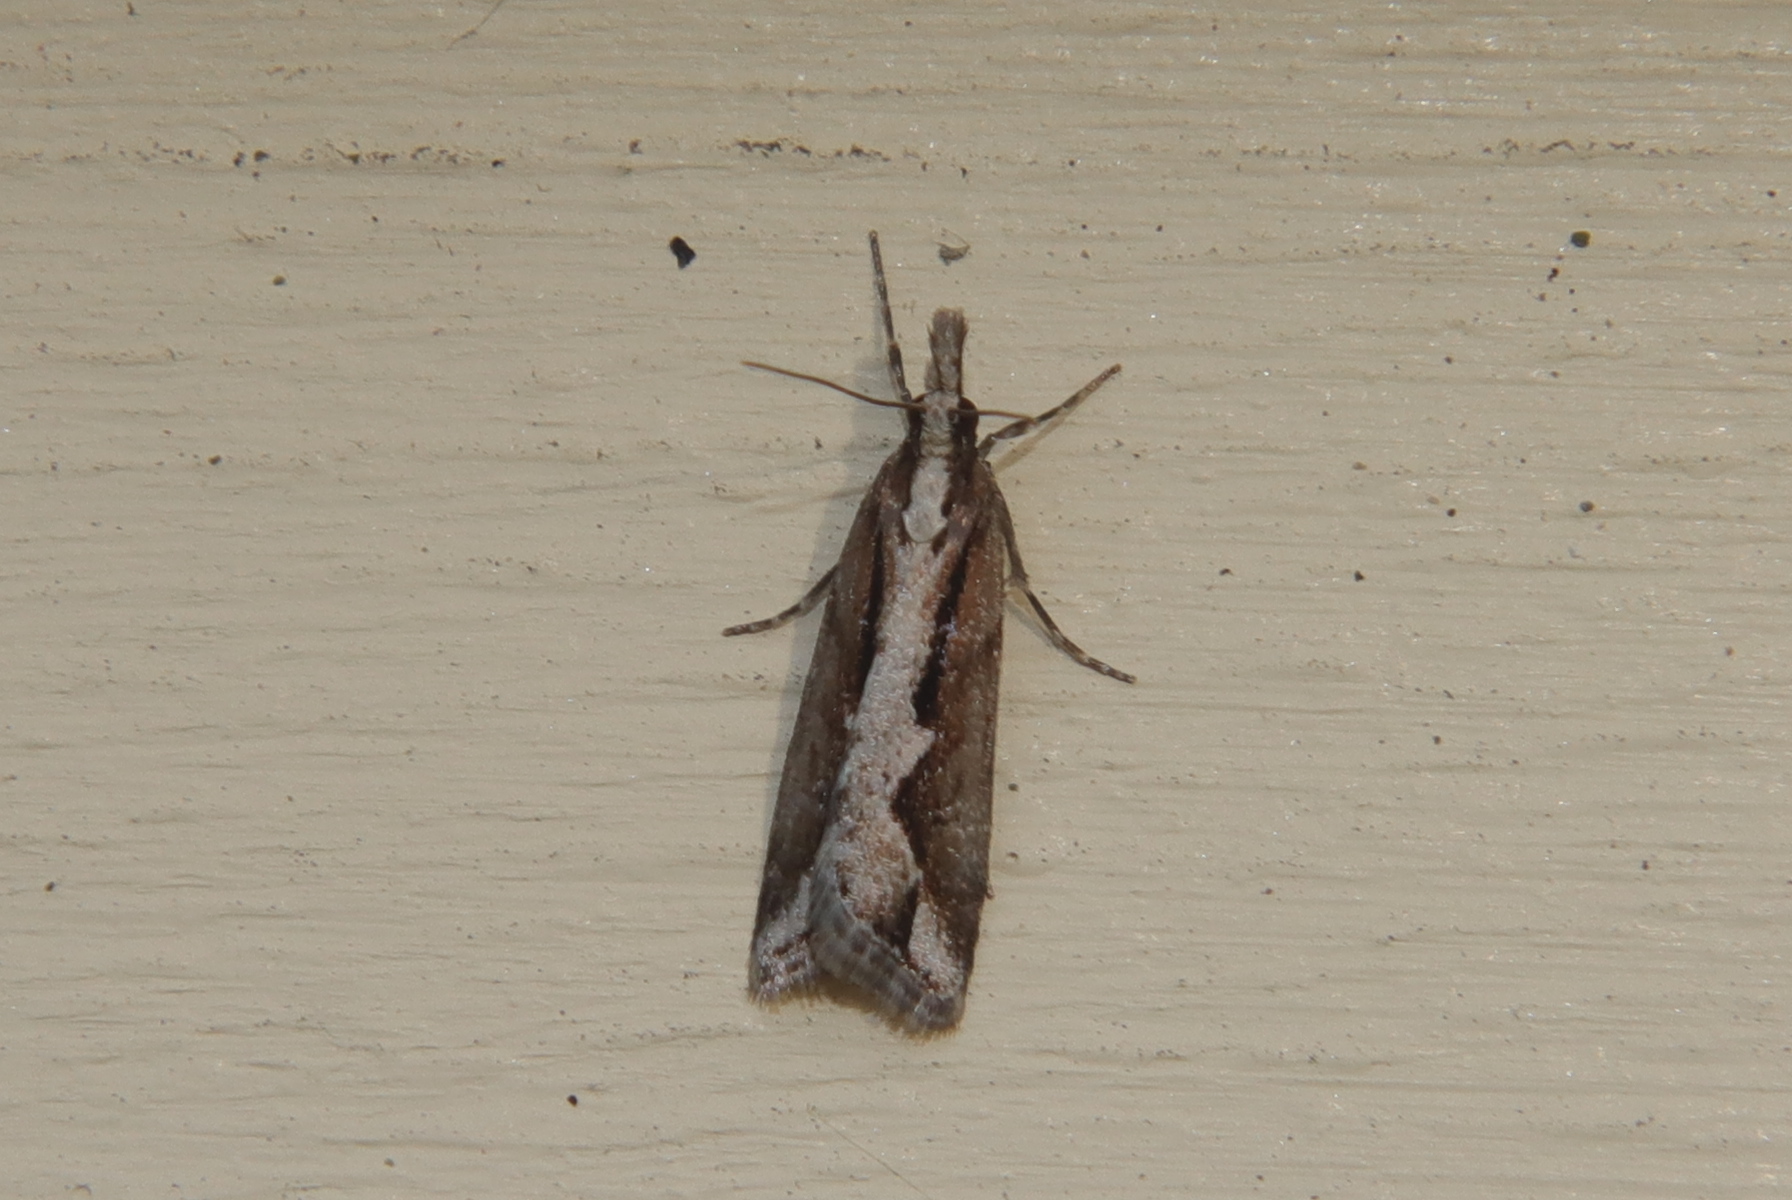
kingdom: Animalia
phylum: Arthropoda
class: Insecta
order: Lepidoptera
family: Crambidae
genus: Eudonia
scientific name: Eudonia steropaea
